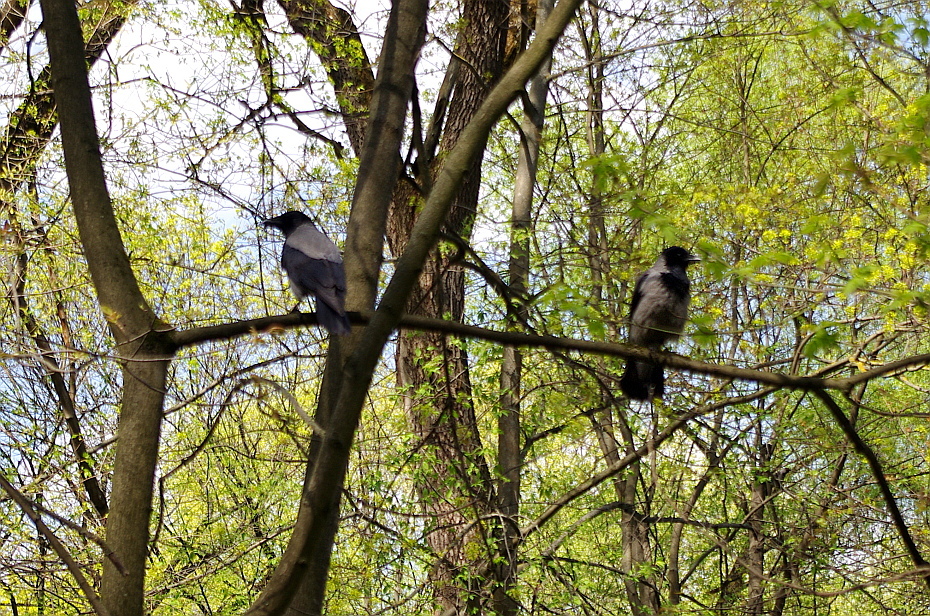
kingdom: Animalia
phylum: Chordata
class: Aves
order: Passeriformes
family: Corvidae
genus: Corvus
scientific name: Corvus cornix
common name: Hooded crow
